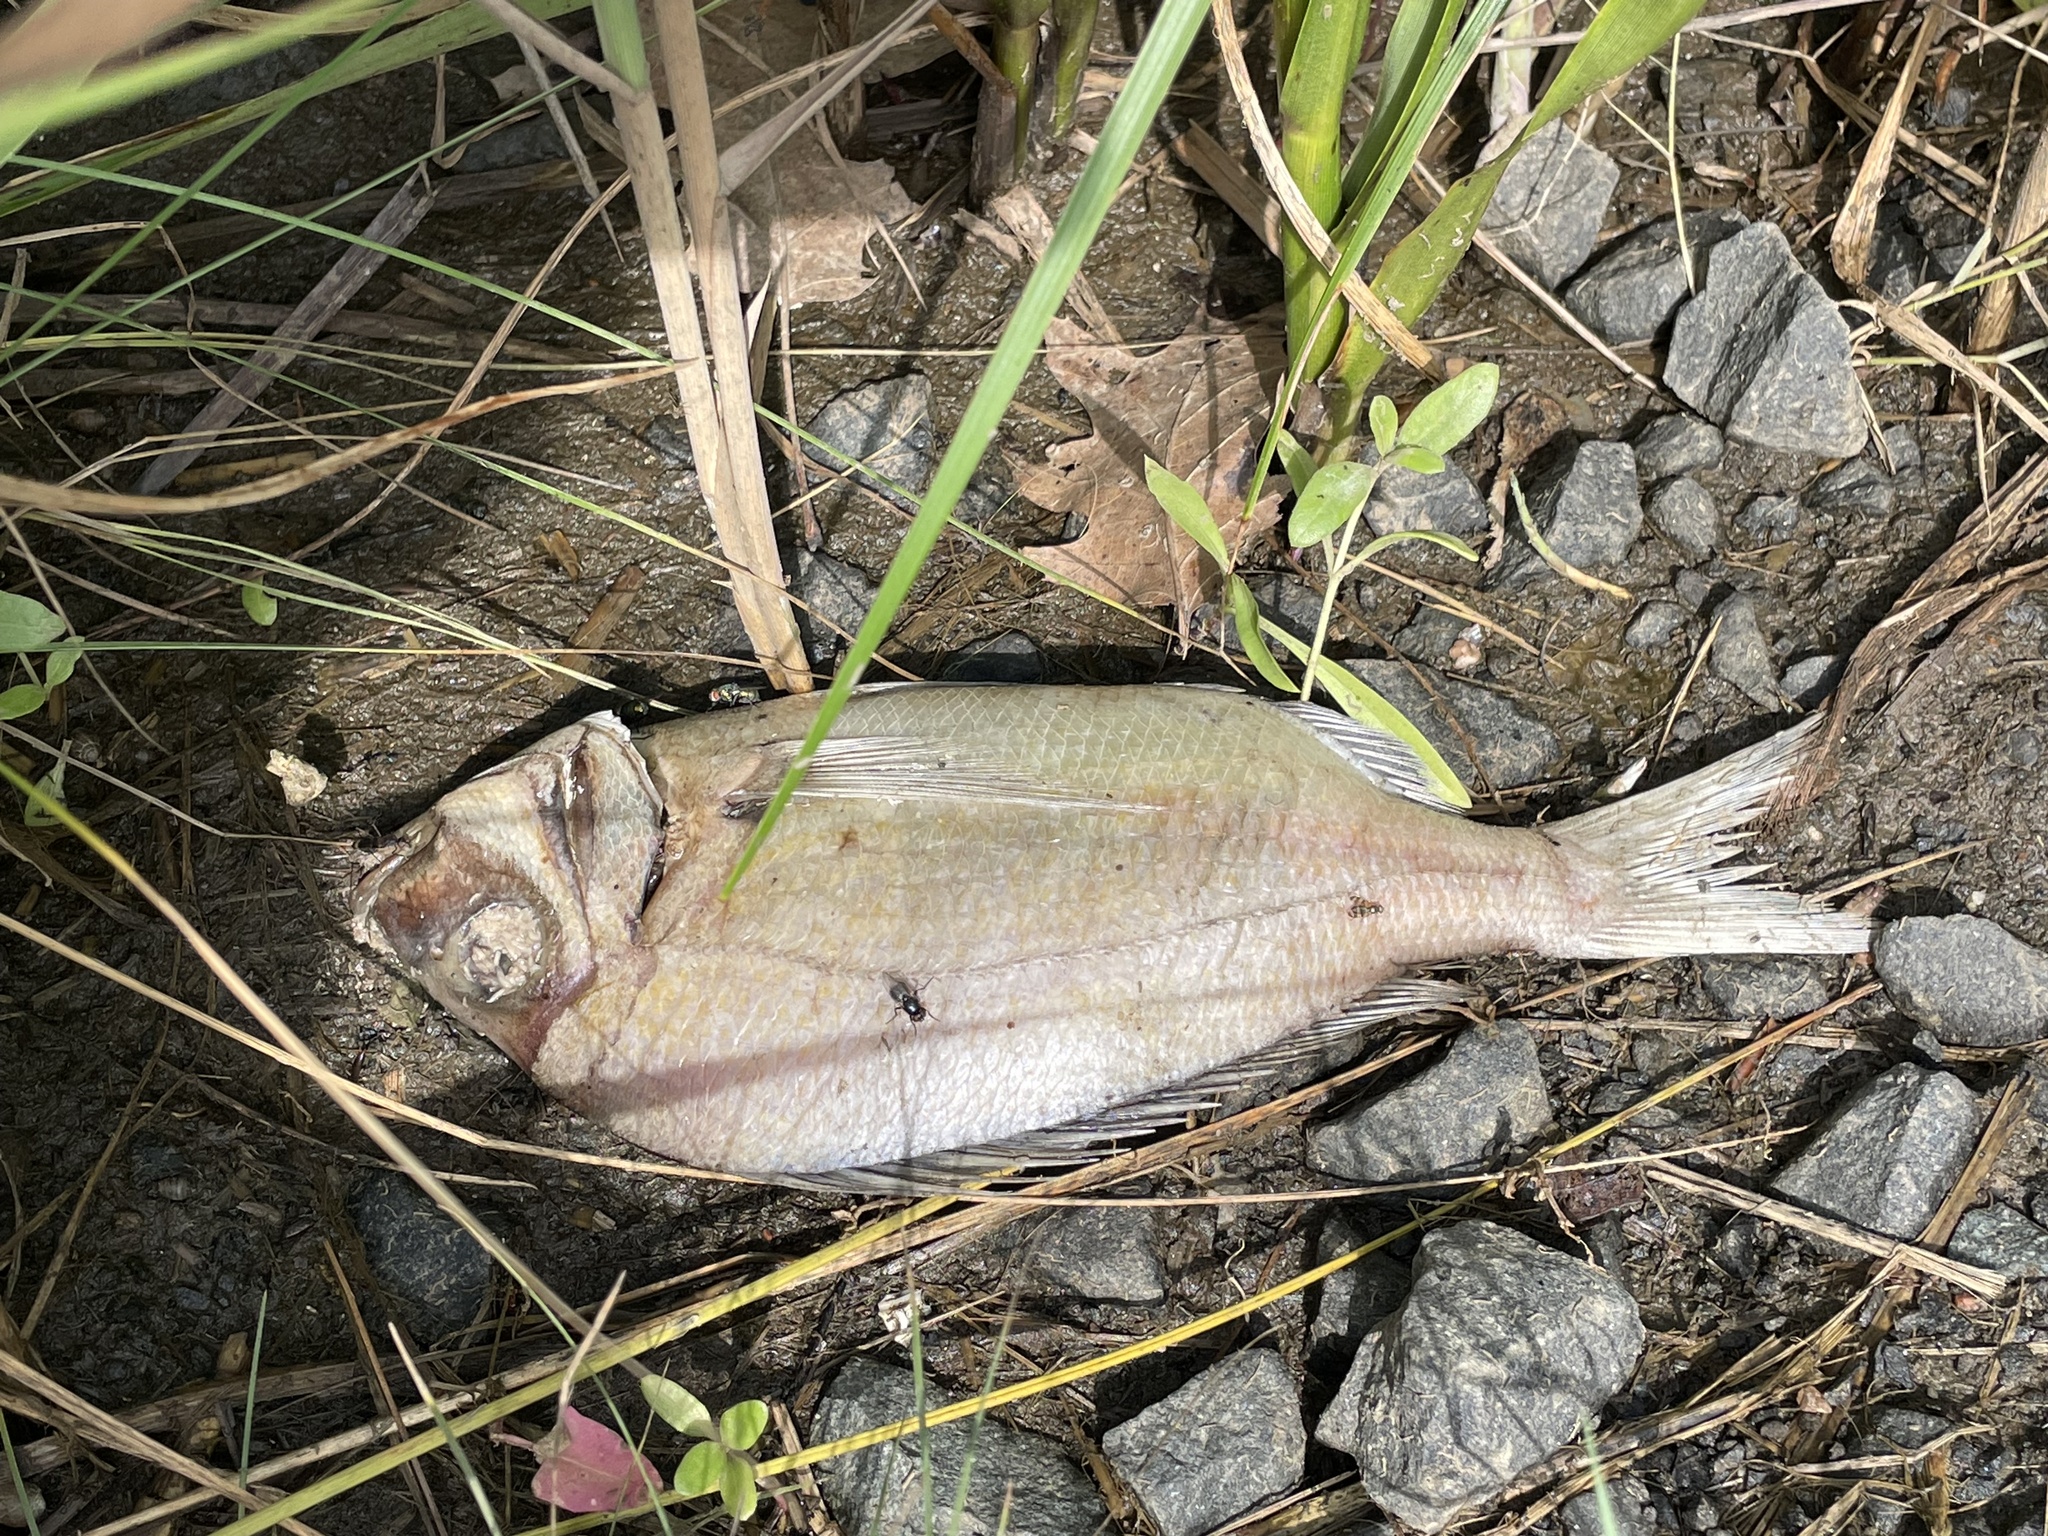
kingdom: Animalia
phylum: Chordata
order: Perciformes
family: Sparidae
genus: Stenotomus
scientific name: Stenotomus chrysops
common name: Scup
